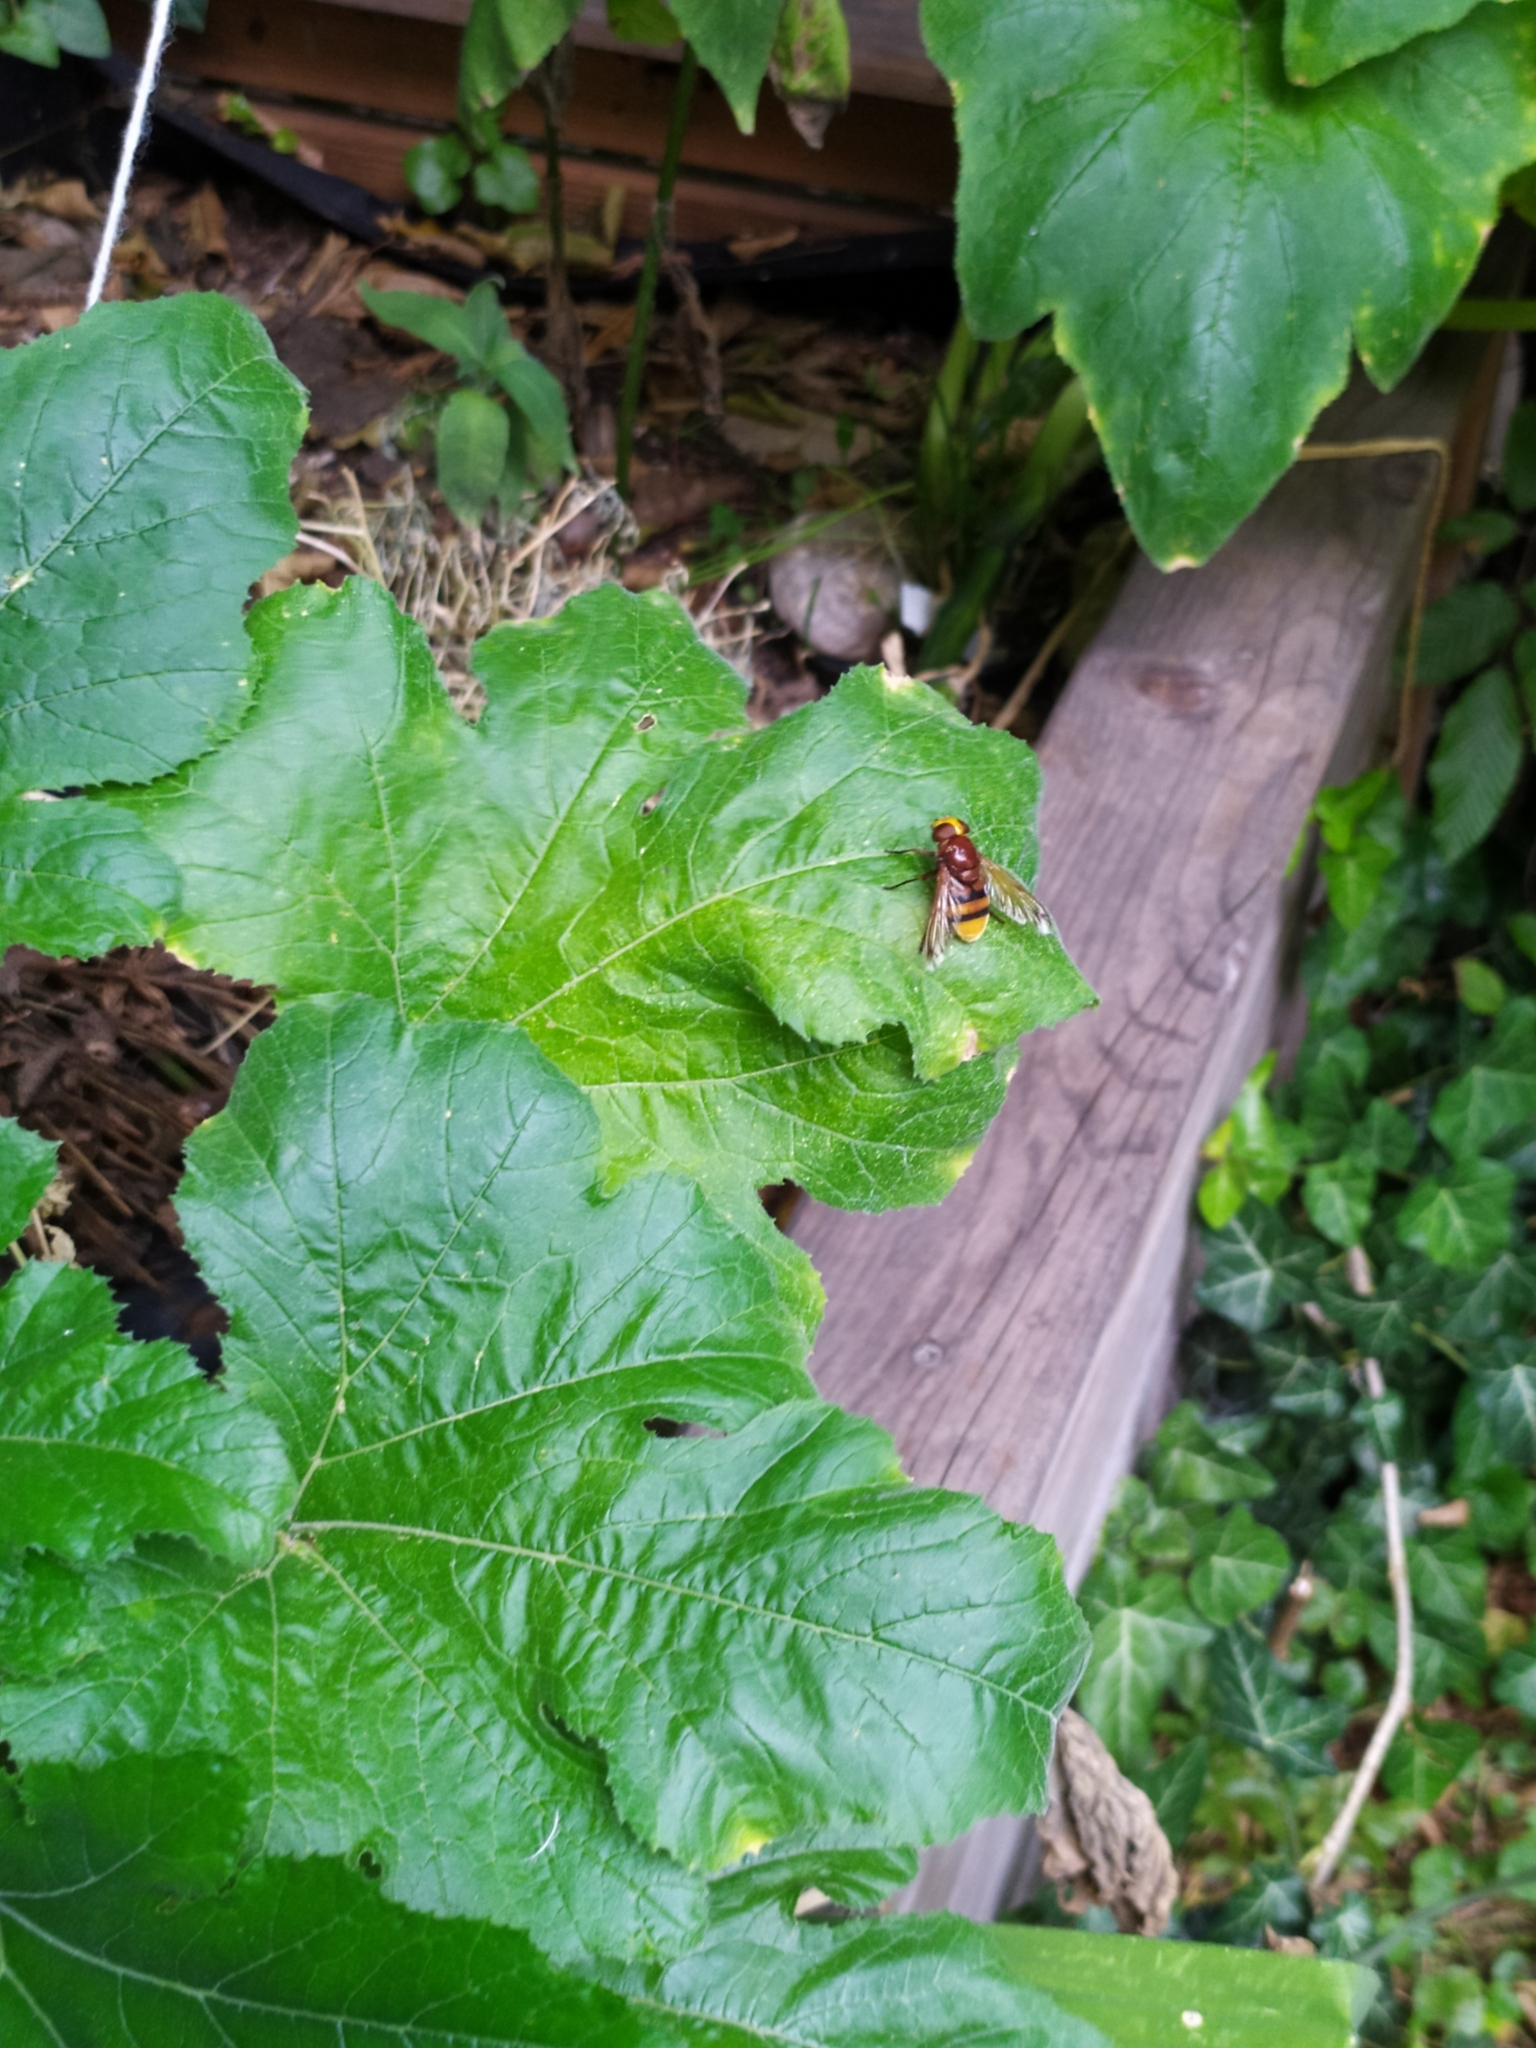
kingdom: Animalia
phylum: Arthropoda
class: Insecta
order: Diptera
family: Syrphidae
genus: Volucella
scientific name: Volucella zonaria
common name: Hornet hoverfly
